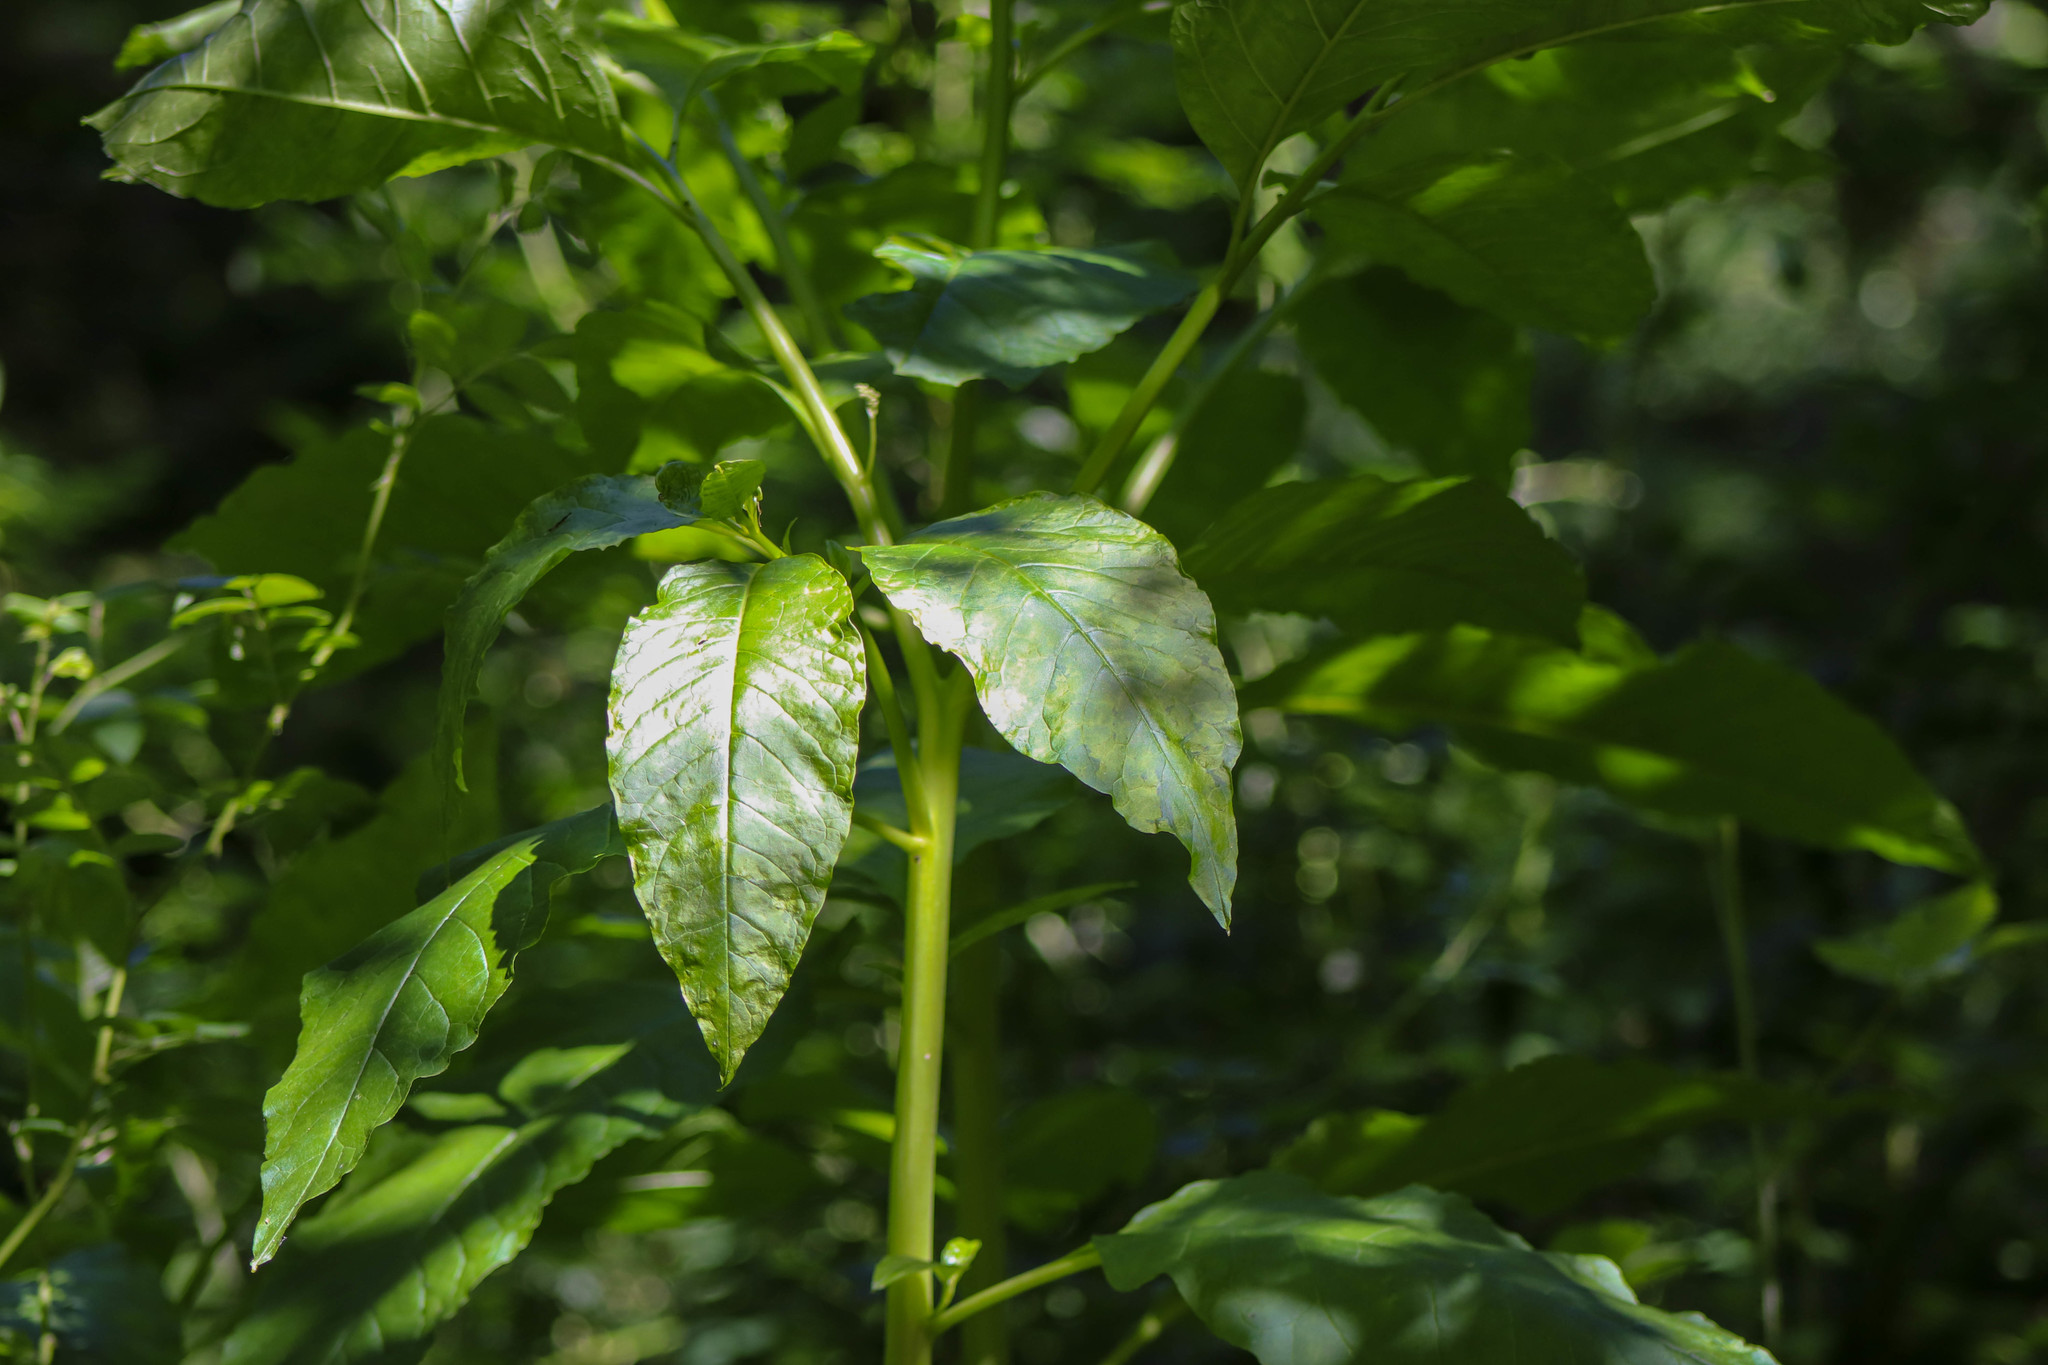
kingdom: Plantae
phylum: Tracheophyta
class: Magnoliopsida
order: Caryophyllales
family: Phytolaccaceae
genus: Phytolacca
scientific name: Phytolacca americana
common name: American pokeweed
